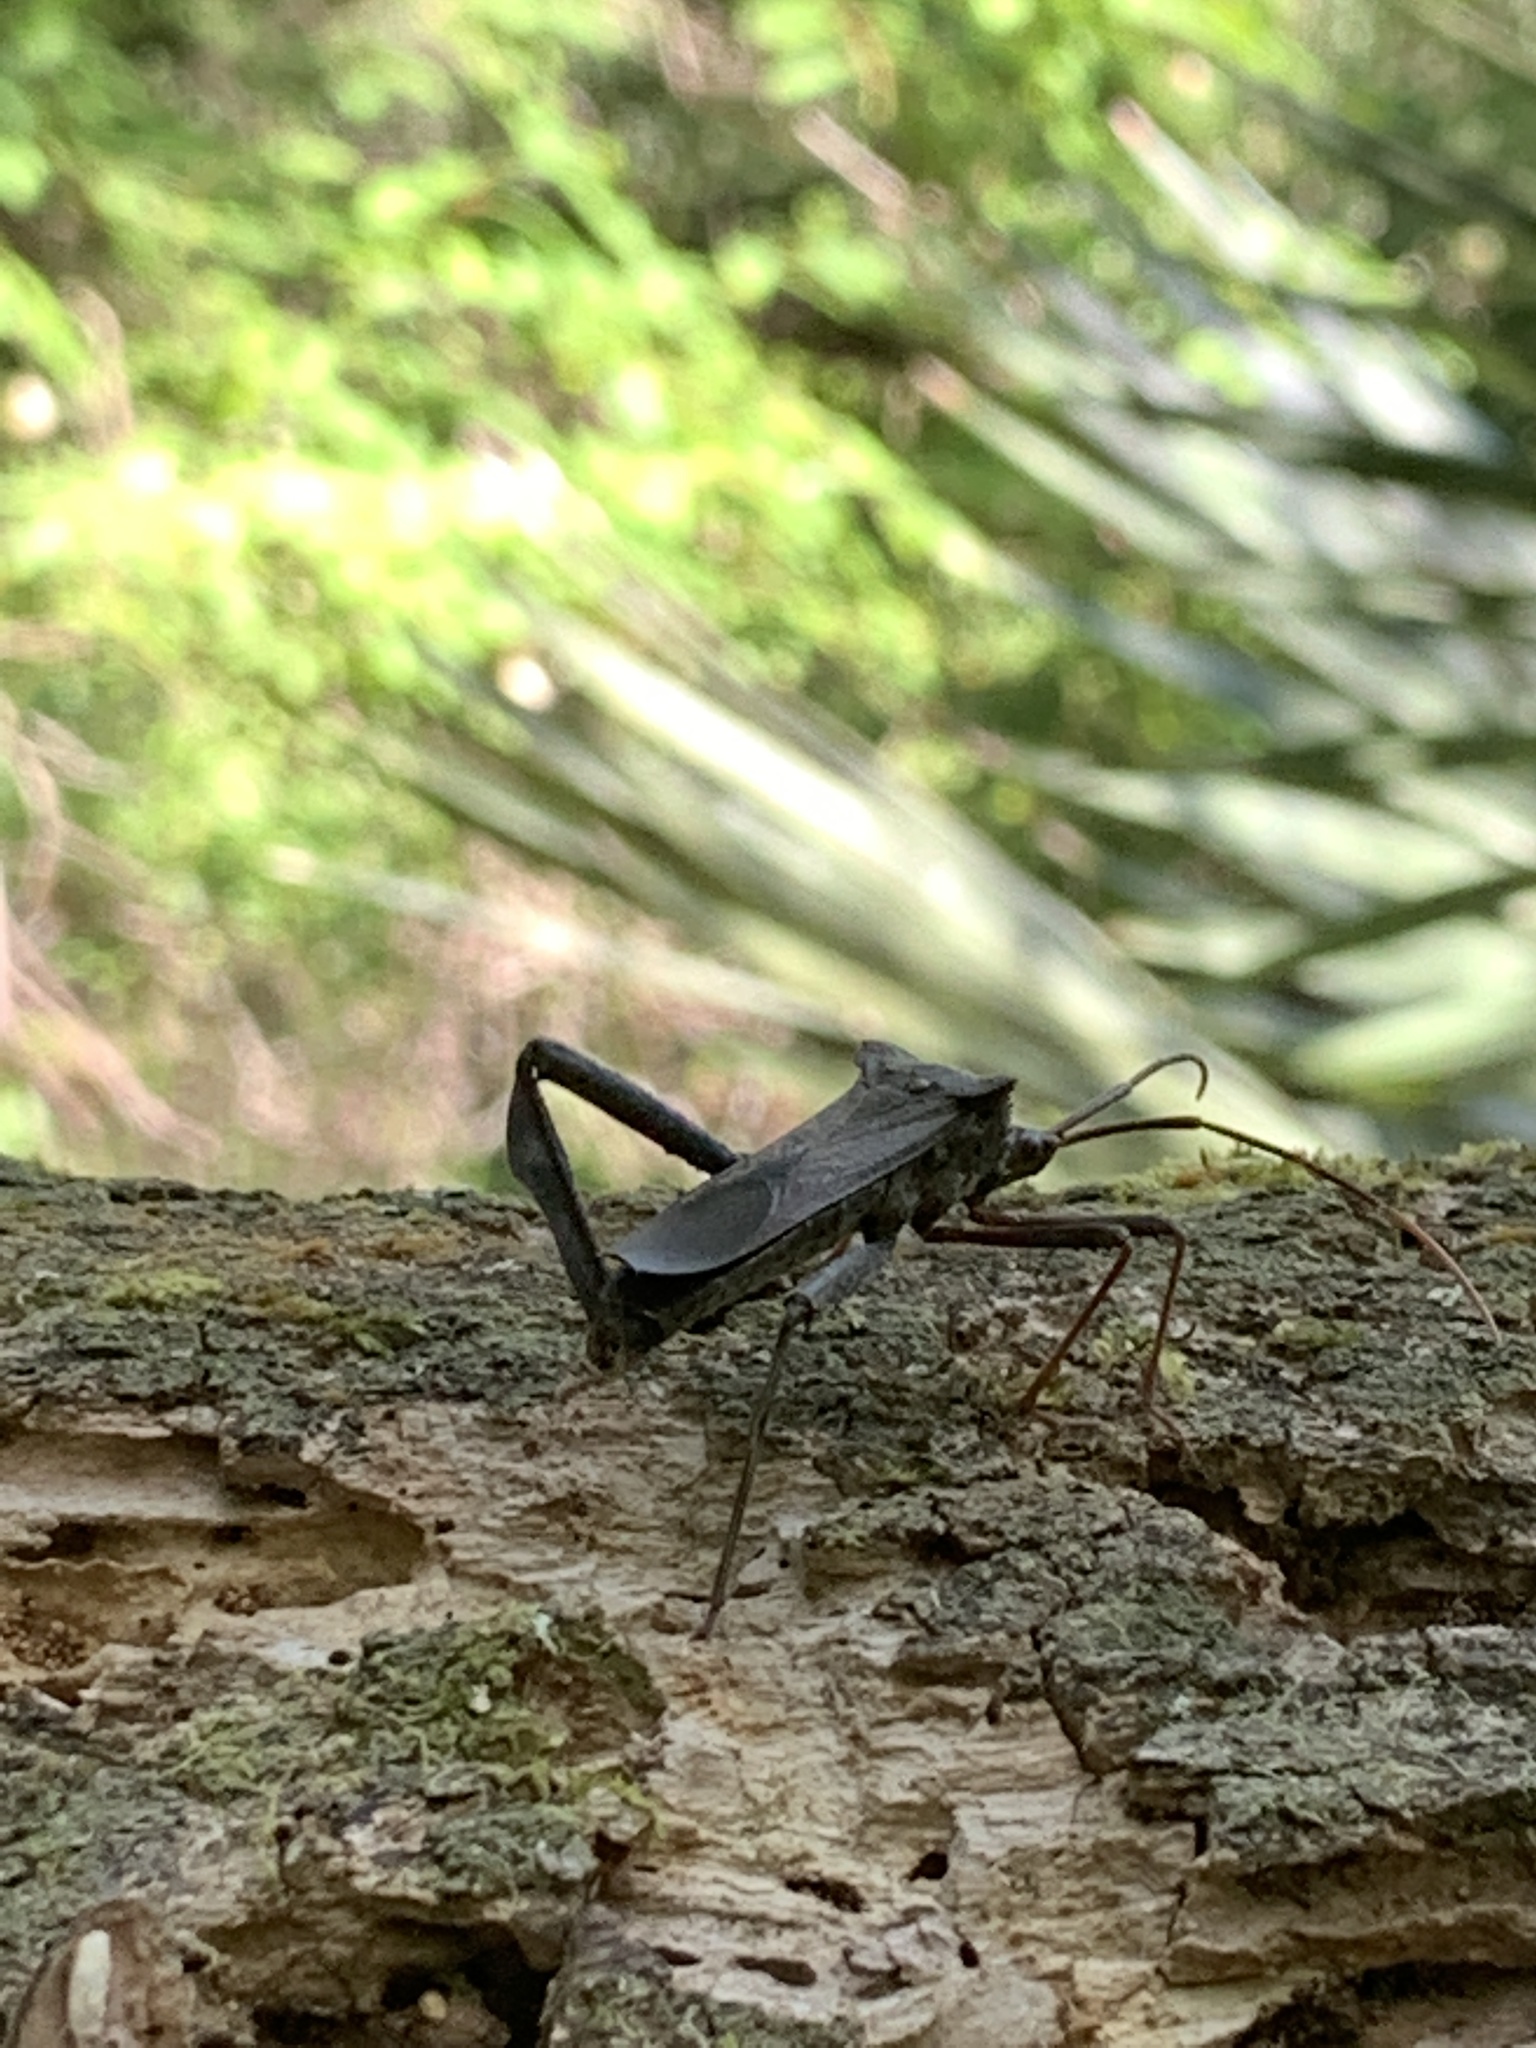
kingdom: Animalia
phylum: Arthropoda
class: Insecta
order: Hemiptera
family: Coreidae
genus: Acanthocephala
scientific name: Acanthocephala declivis
